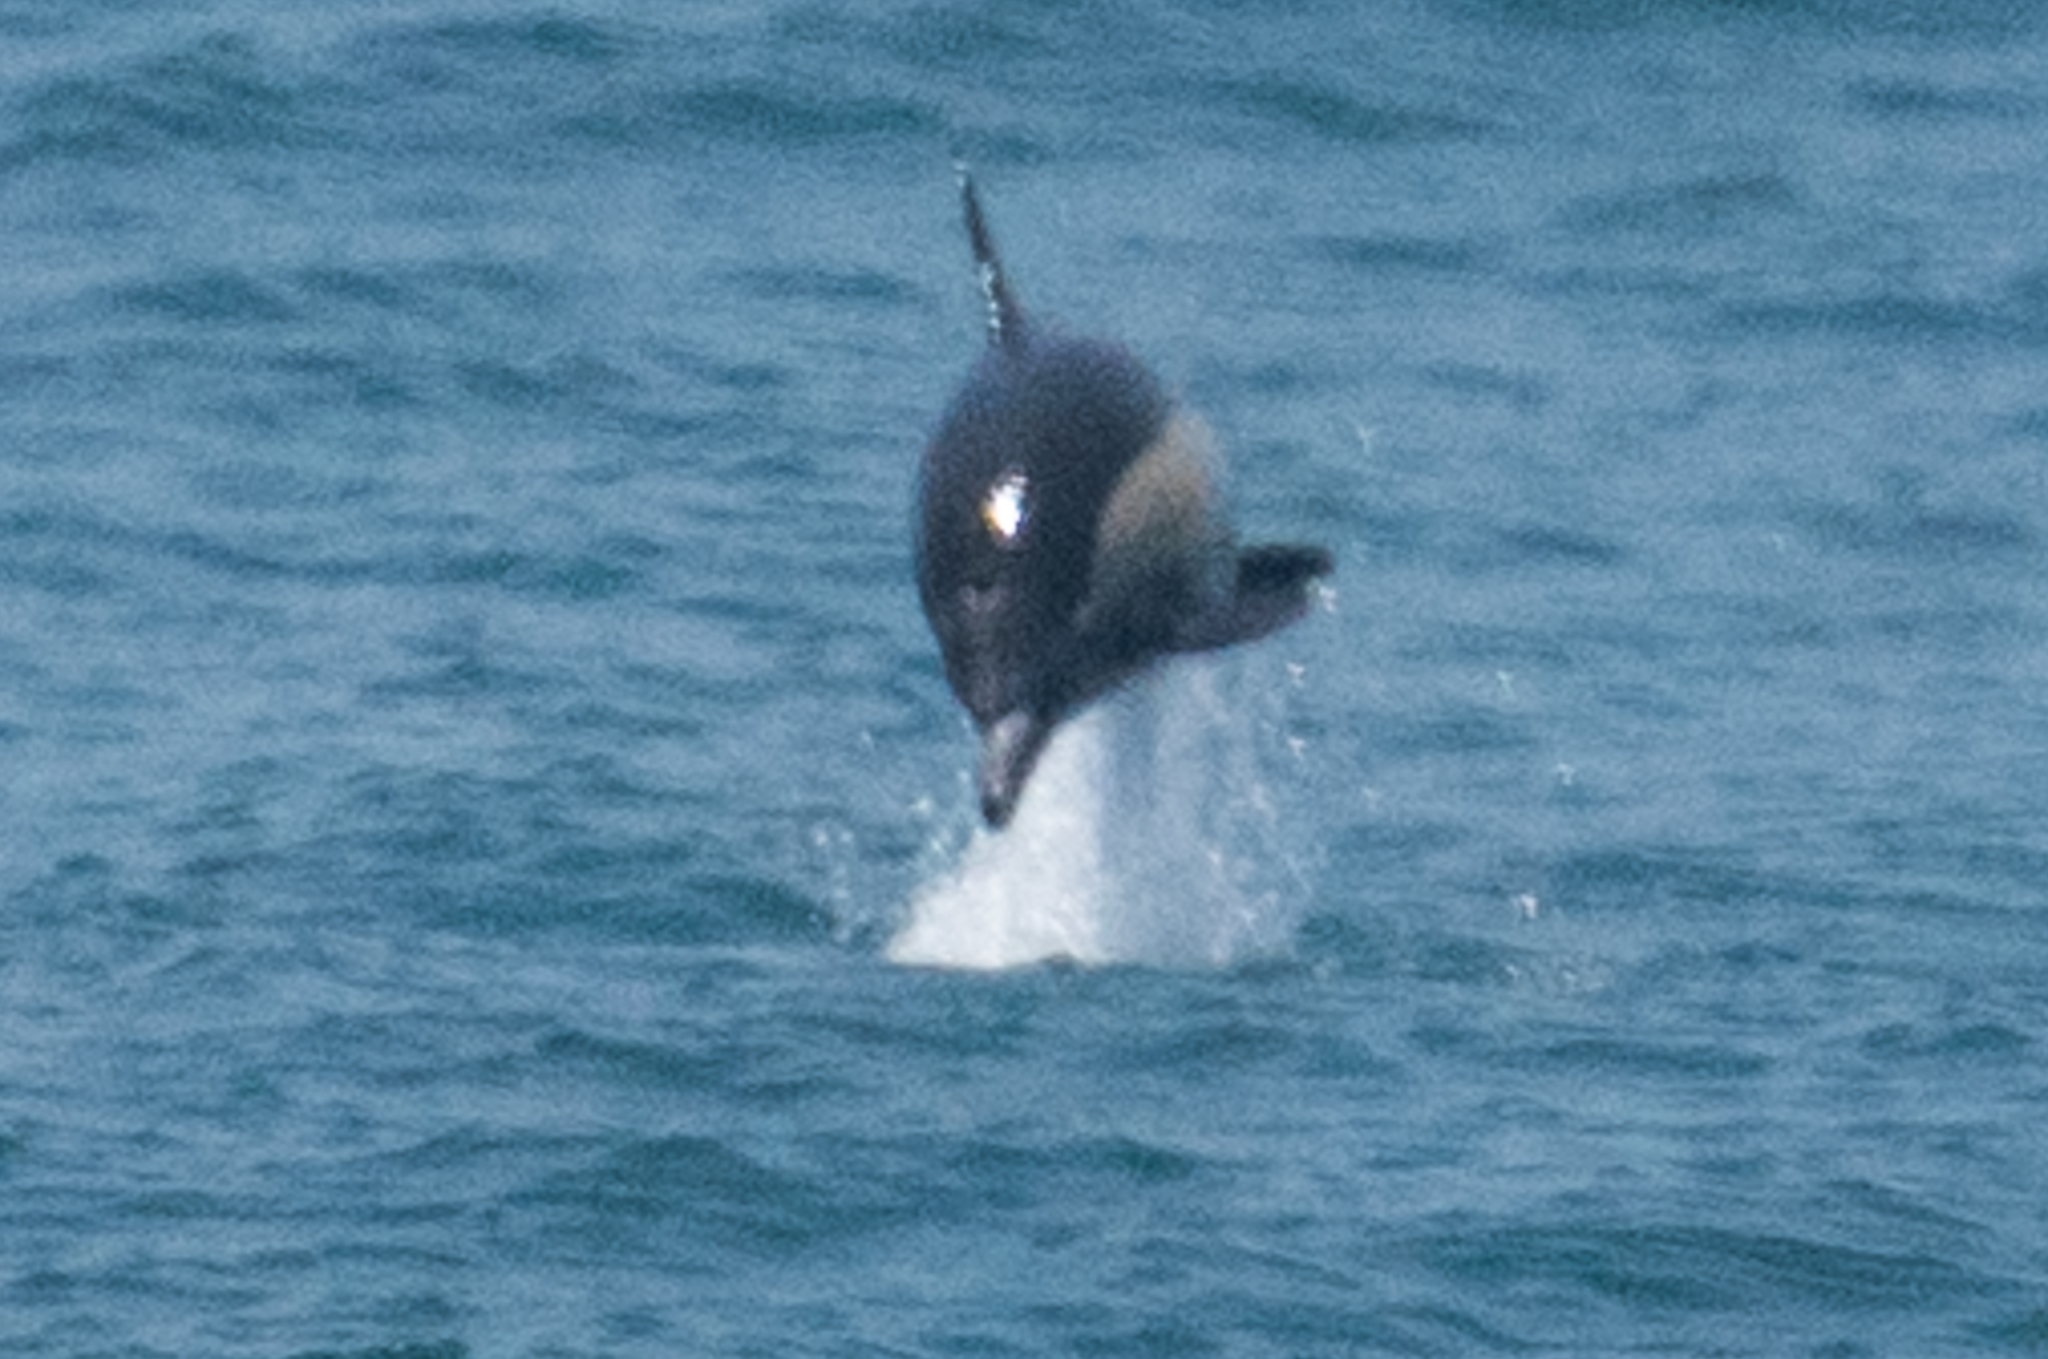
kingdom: Animalia
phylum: Chordata
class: Mammalia
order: Cetacea
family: Delphinidae
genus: Delphinus
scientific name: Delphinus delphis
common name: Common dolphin
